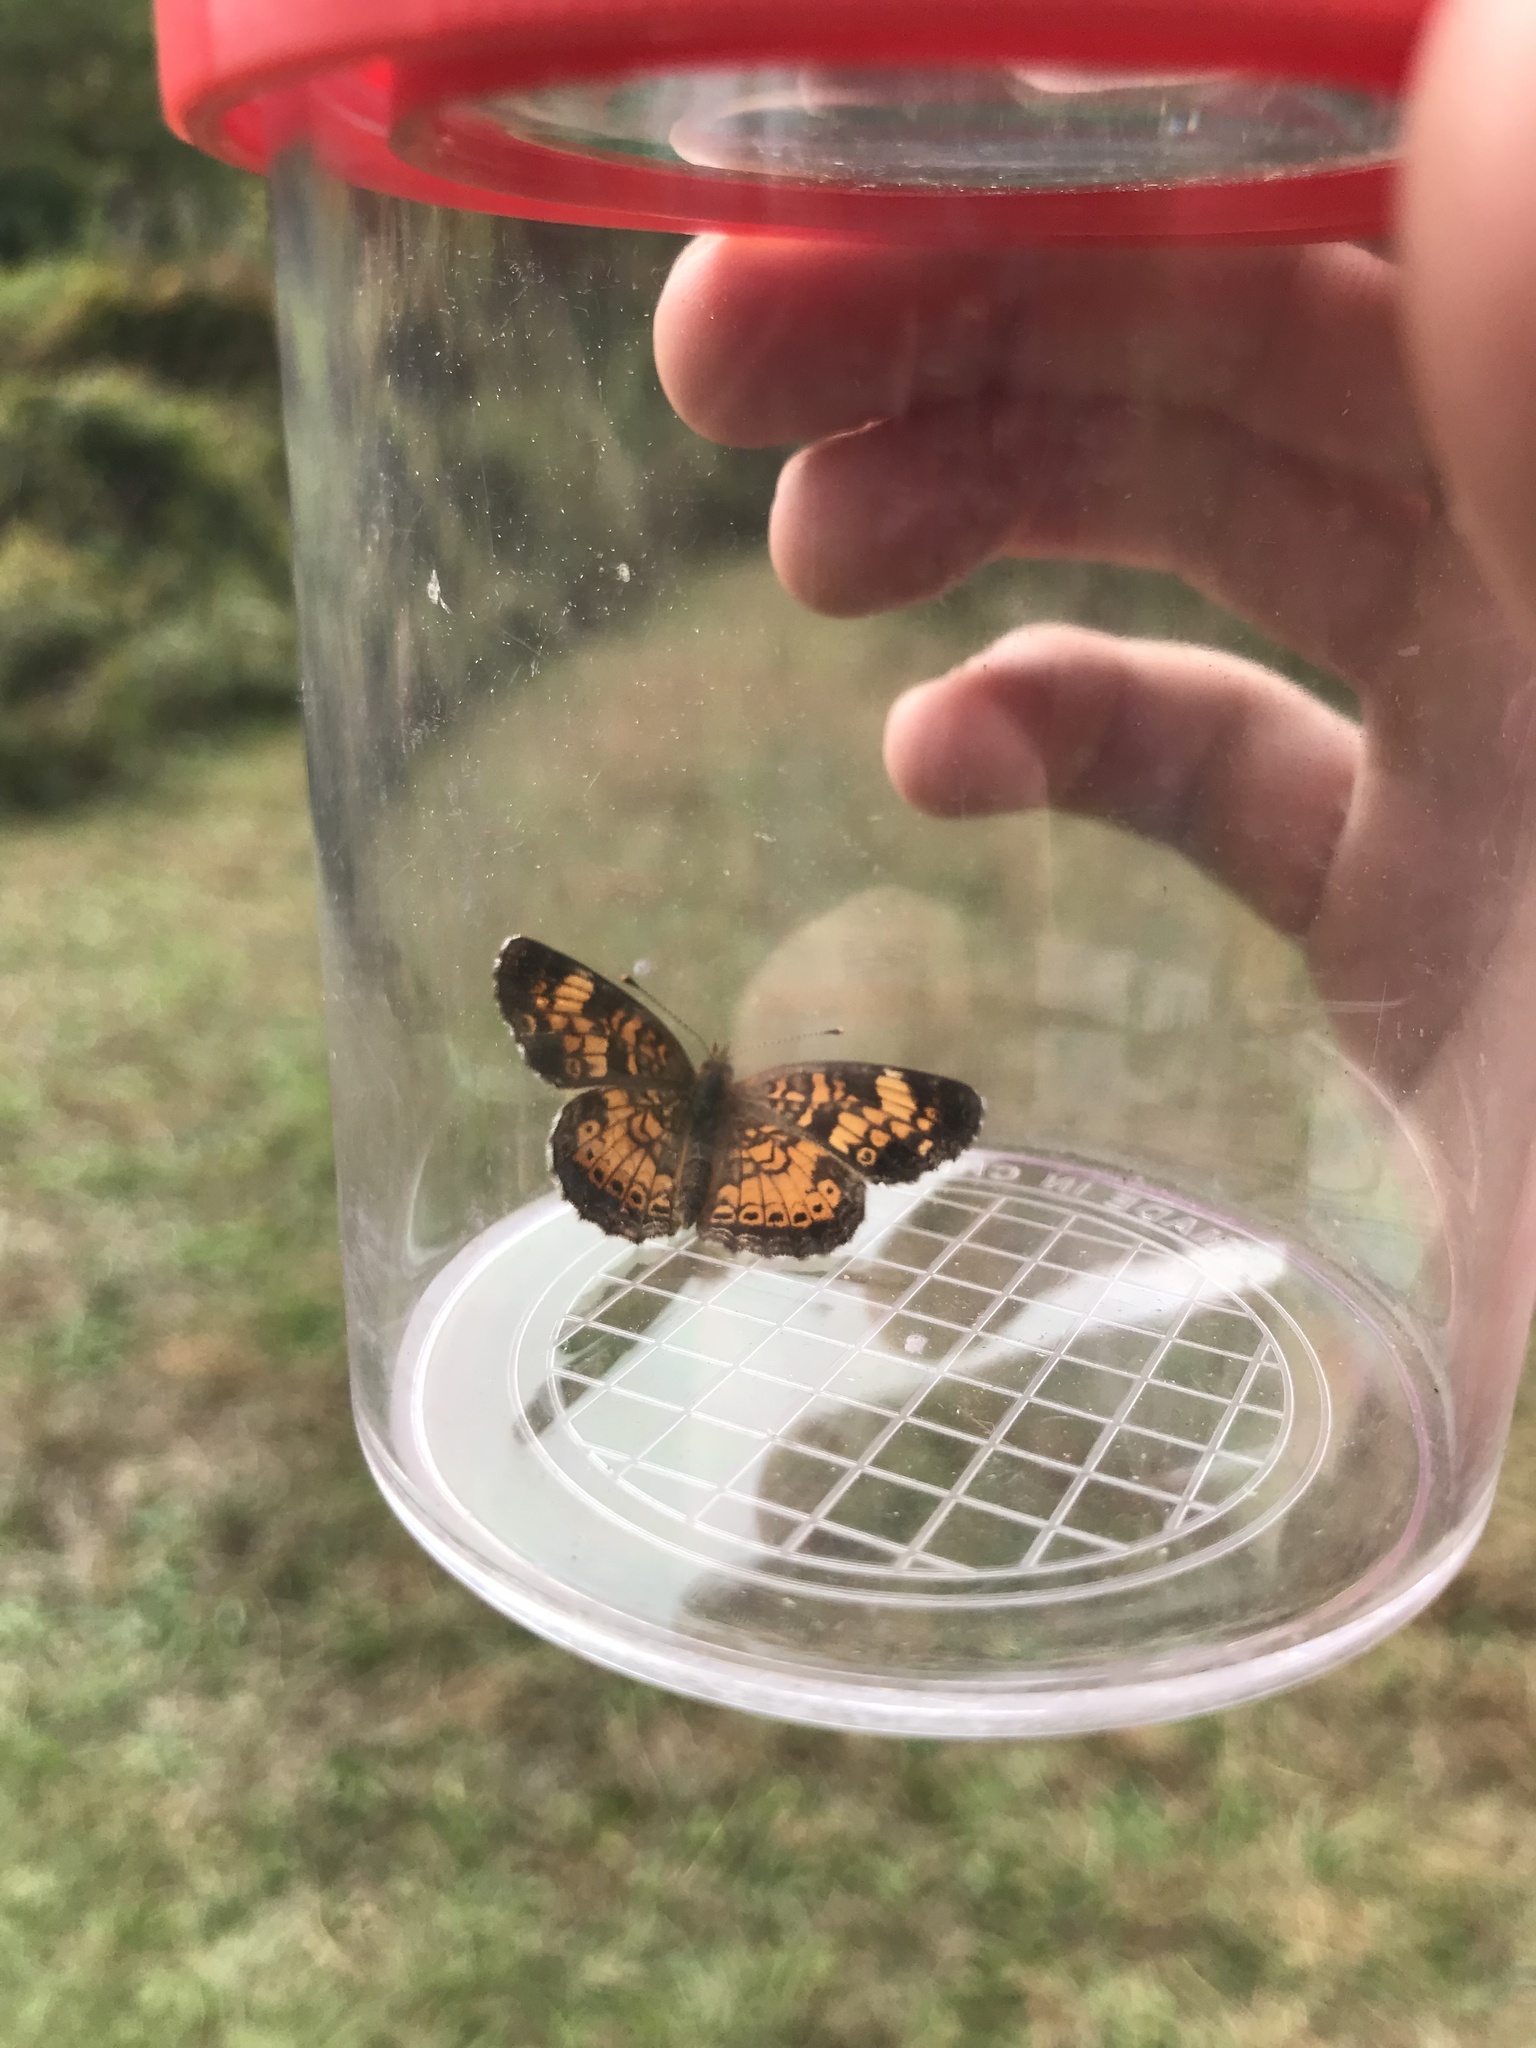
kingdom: Animalia
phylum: Arthropoda
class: Insecta
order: Lepidoptera
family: Nymphalidae
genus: Phyciodes
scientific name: Phyciodes tharos
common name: Pearl crescent
